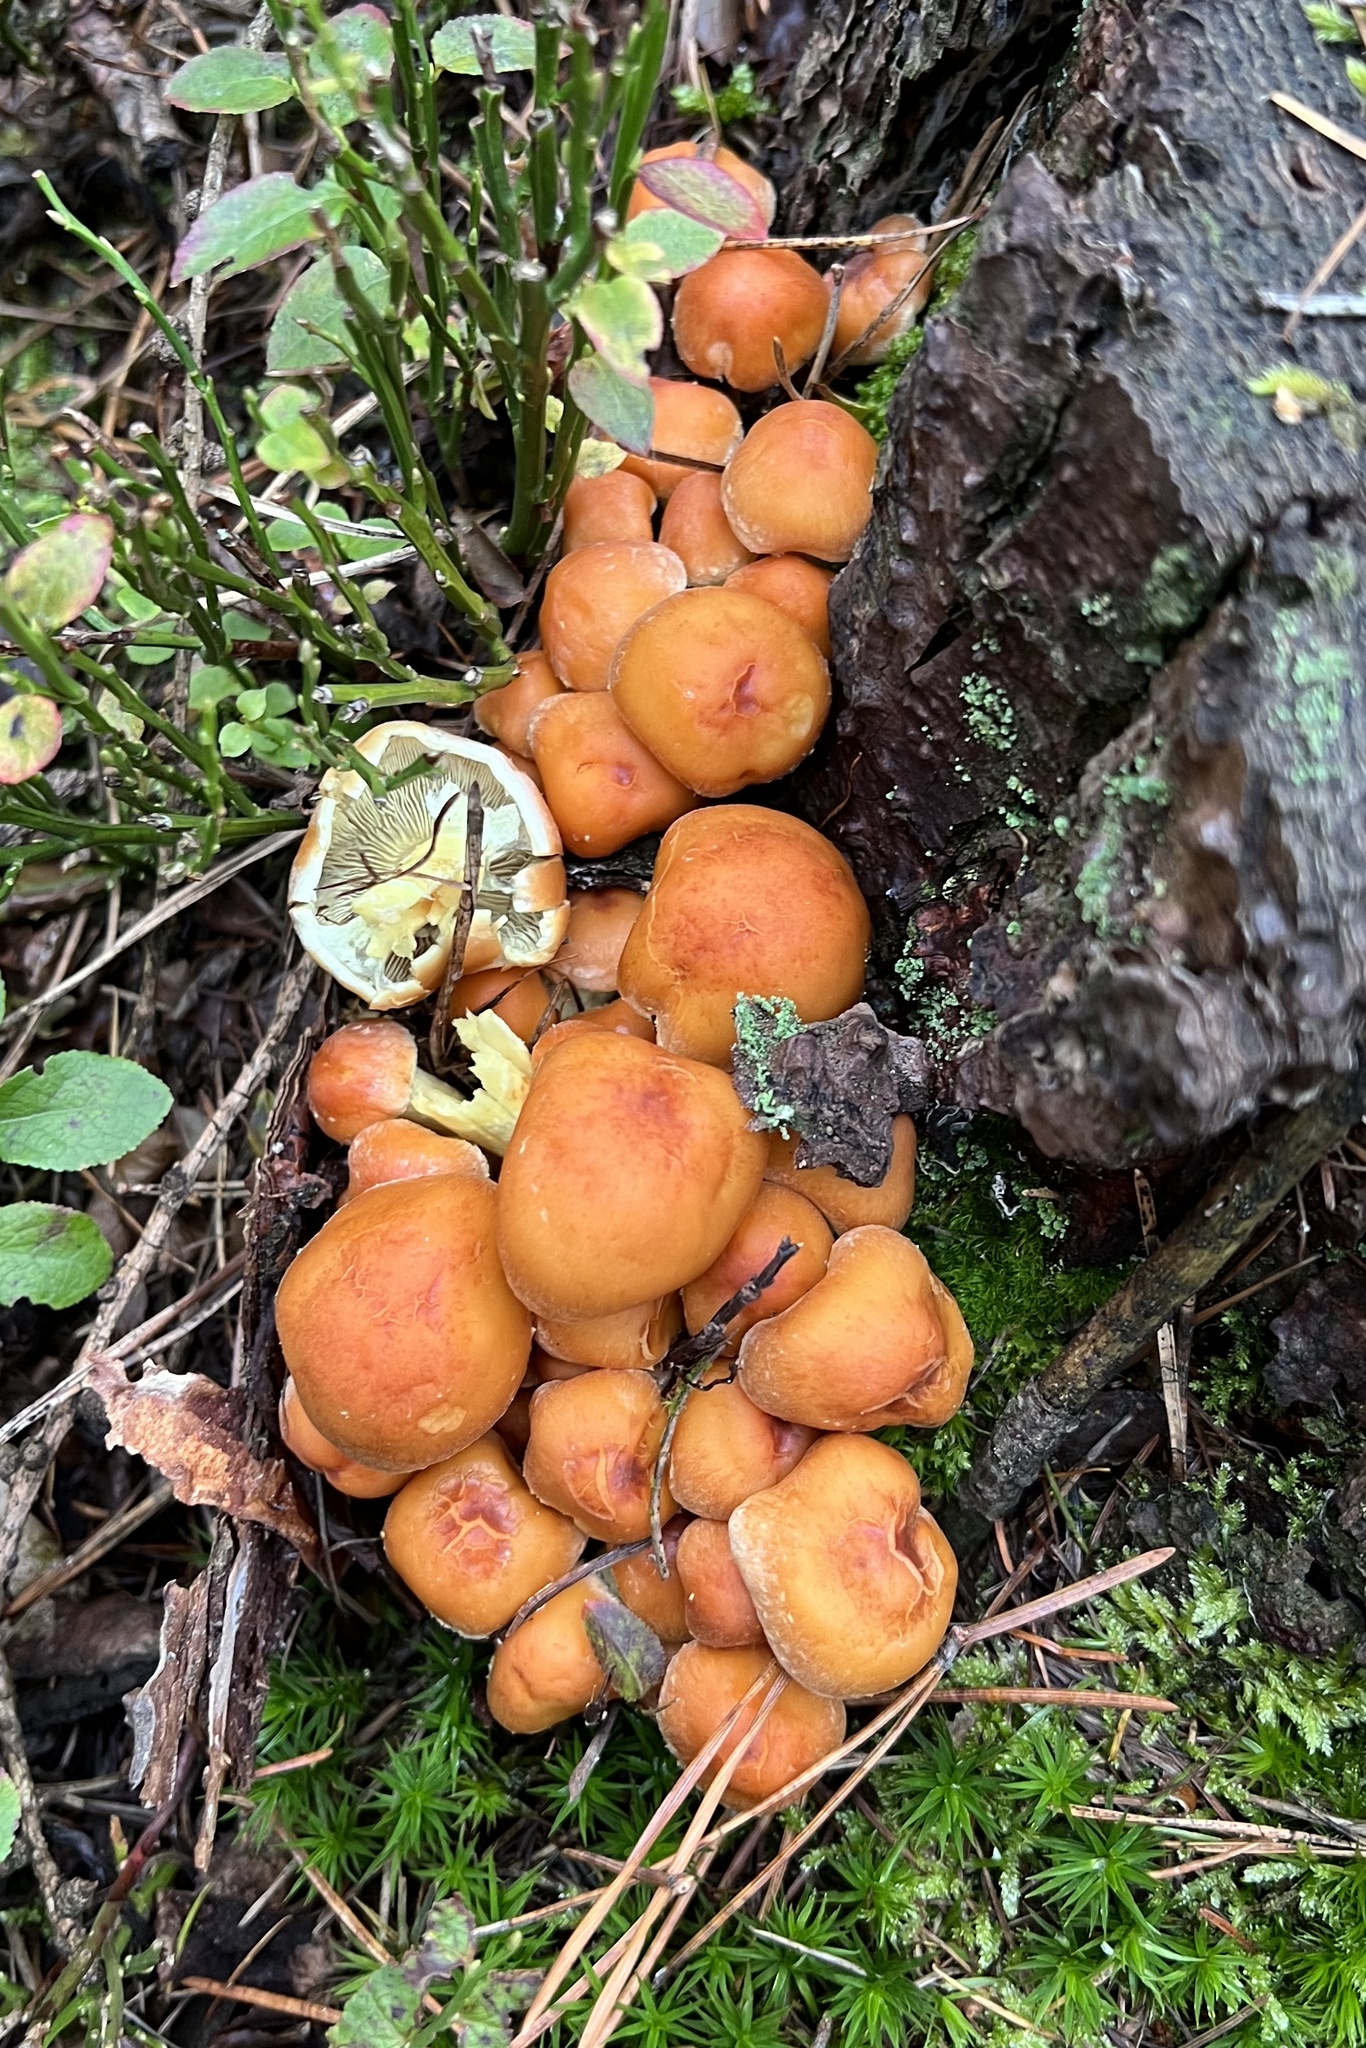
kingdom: Fungi
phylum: Basidiomycota
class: Agaricomycetes
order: Agaricales
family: Strophariaceae
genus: Hypholoma
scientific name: Hypholoma fasciculare
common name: Sulphur tuft
